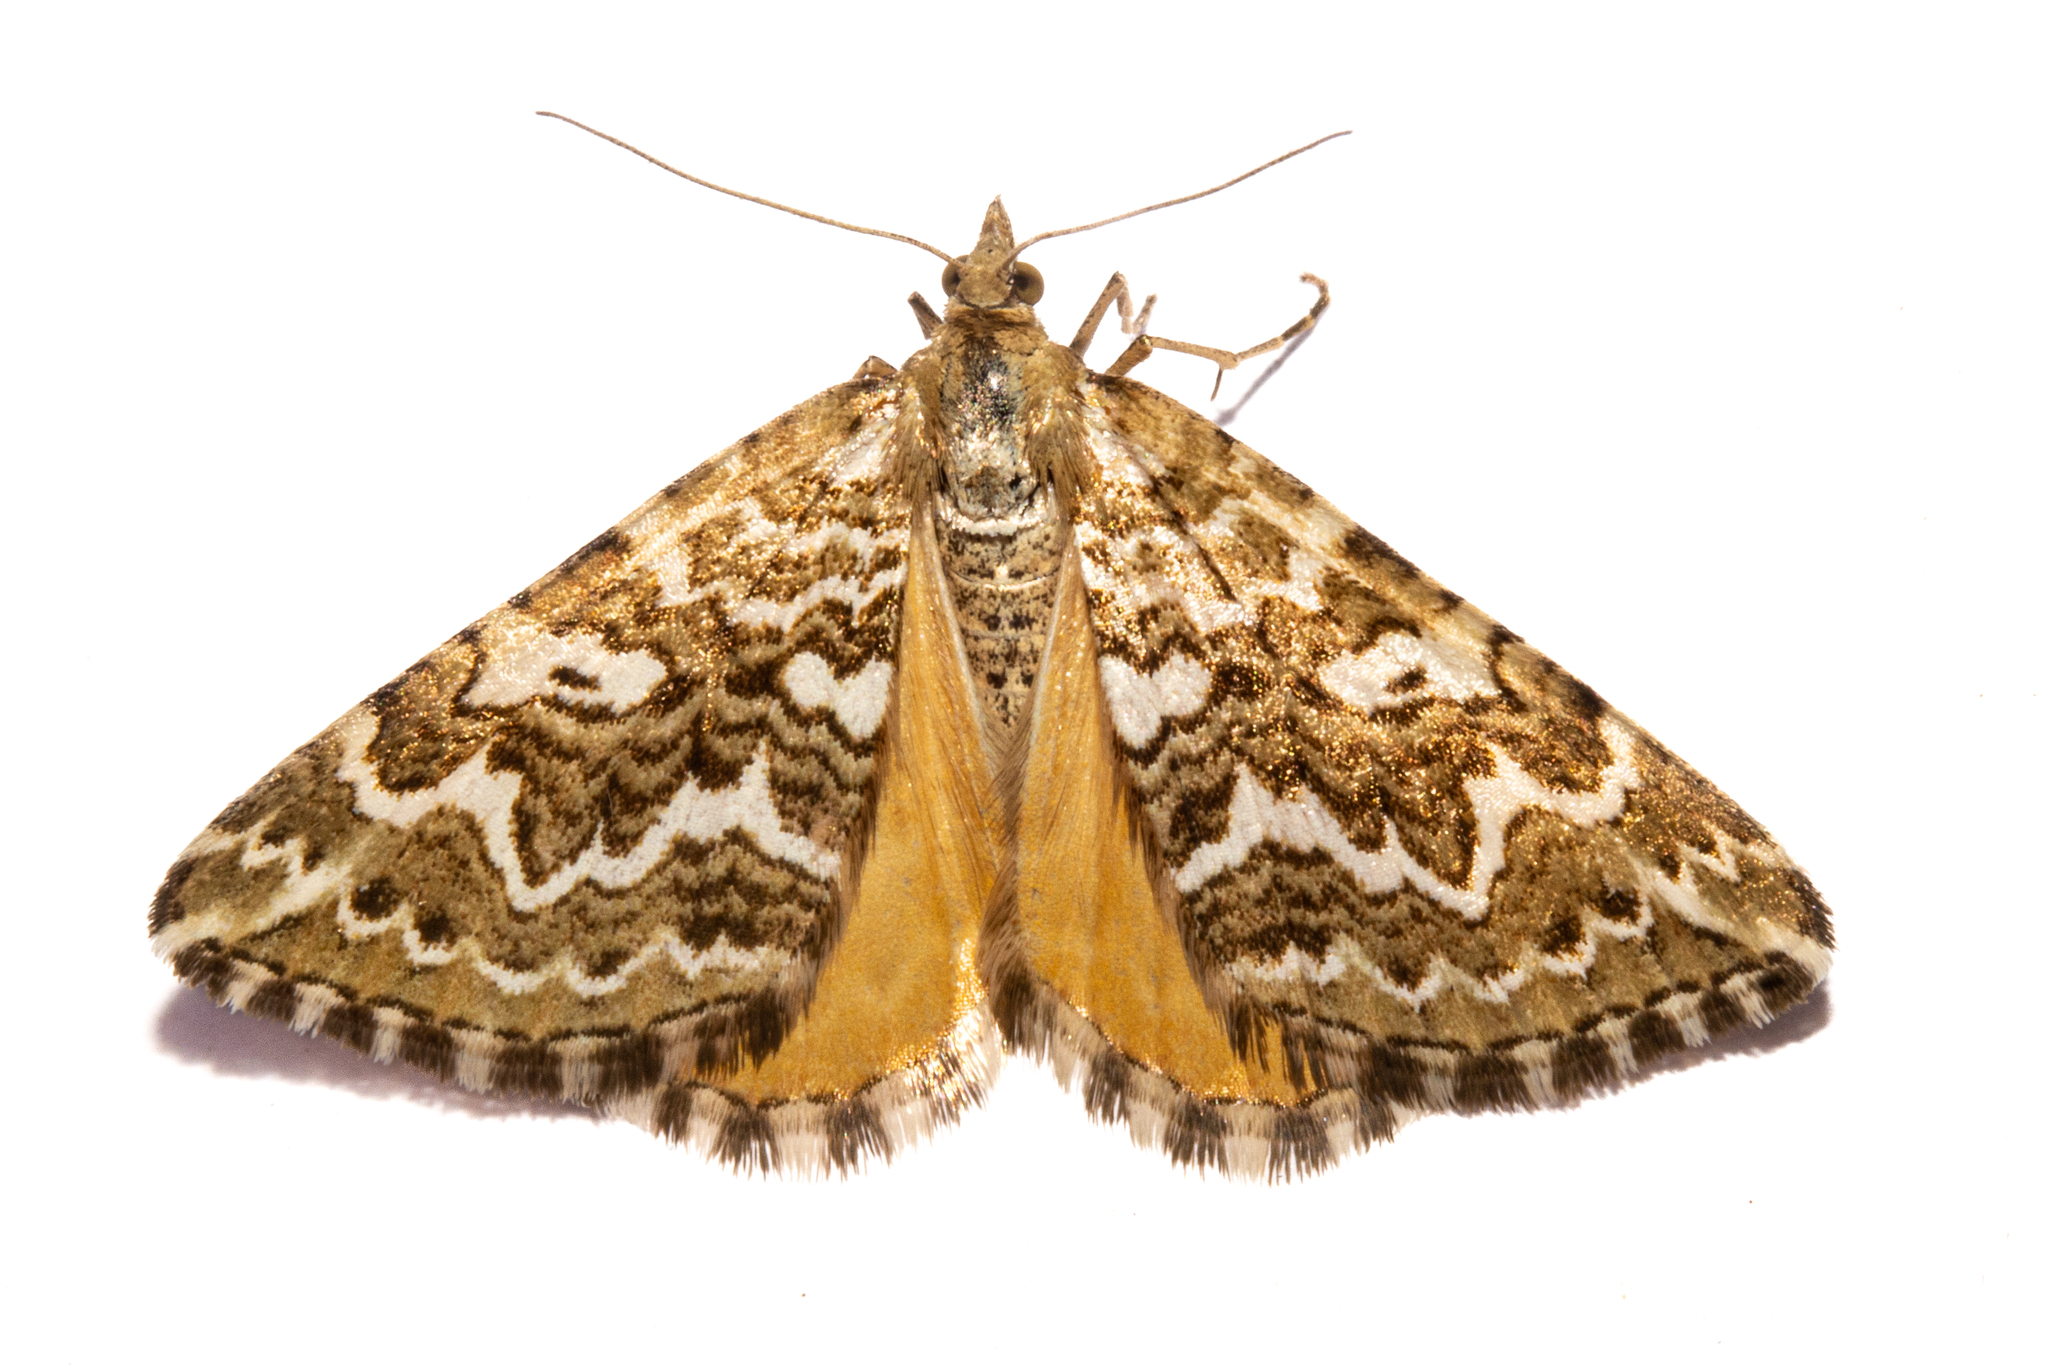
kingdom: Animalia
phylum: Arthropoda
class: Insecta
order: Lepidoptera
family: Geometridae
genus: Asaphodes
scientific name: Asaphodes clarata
